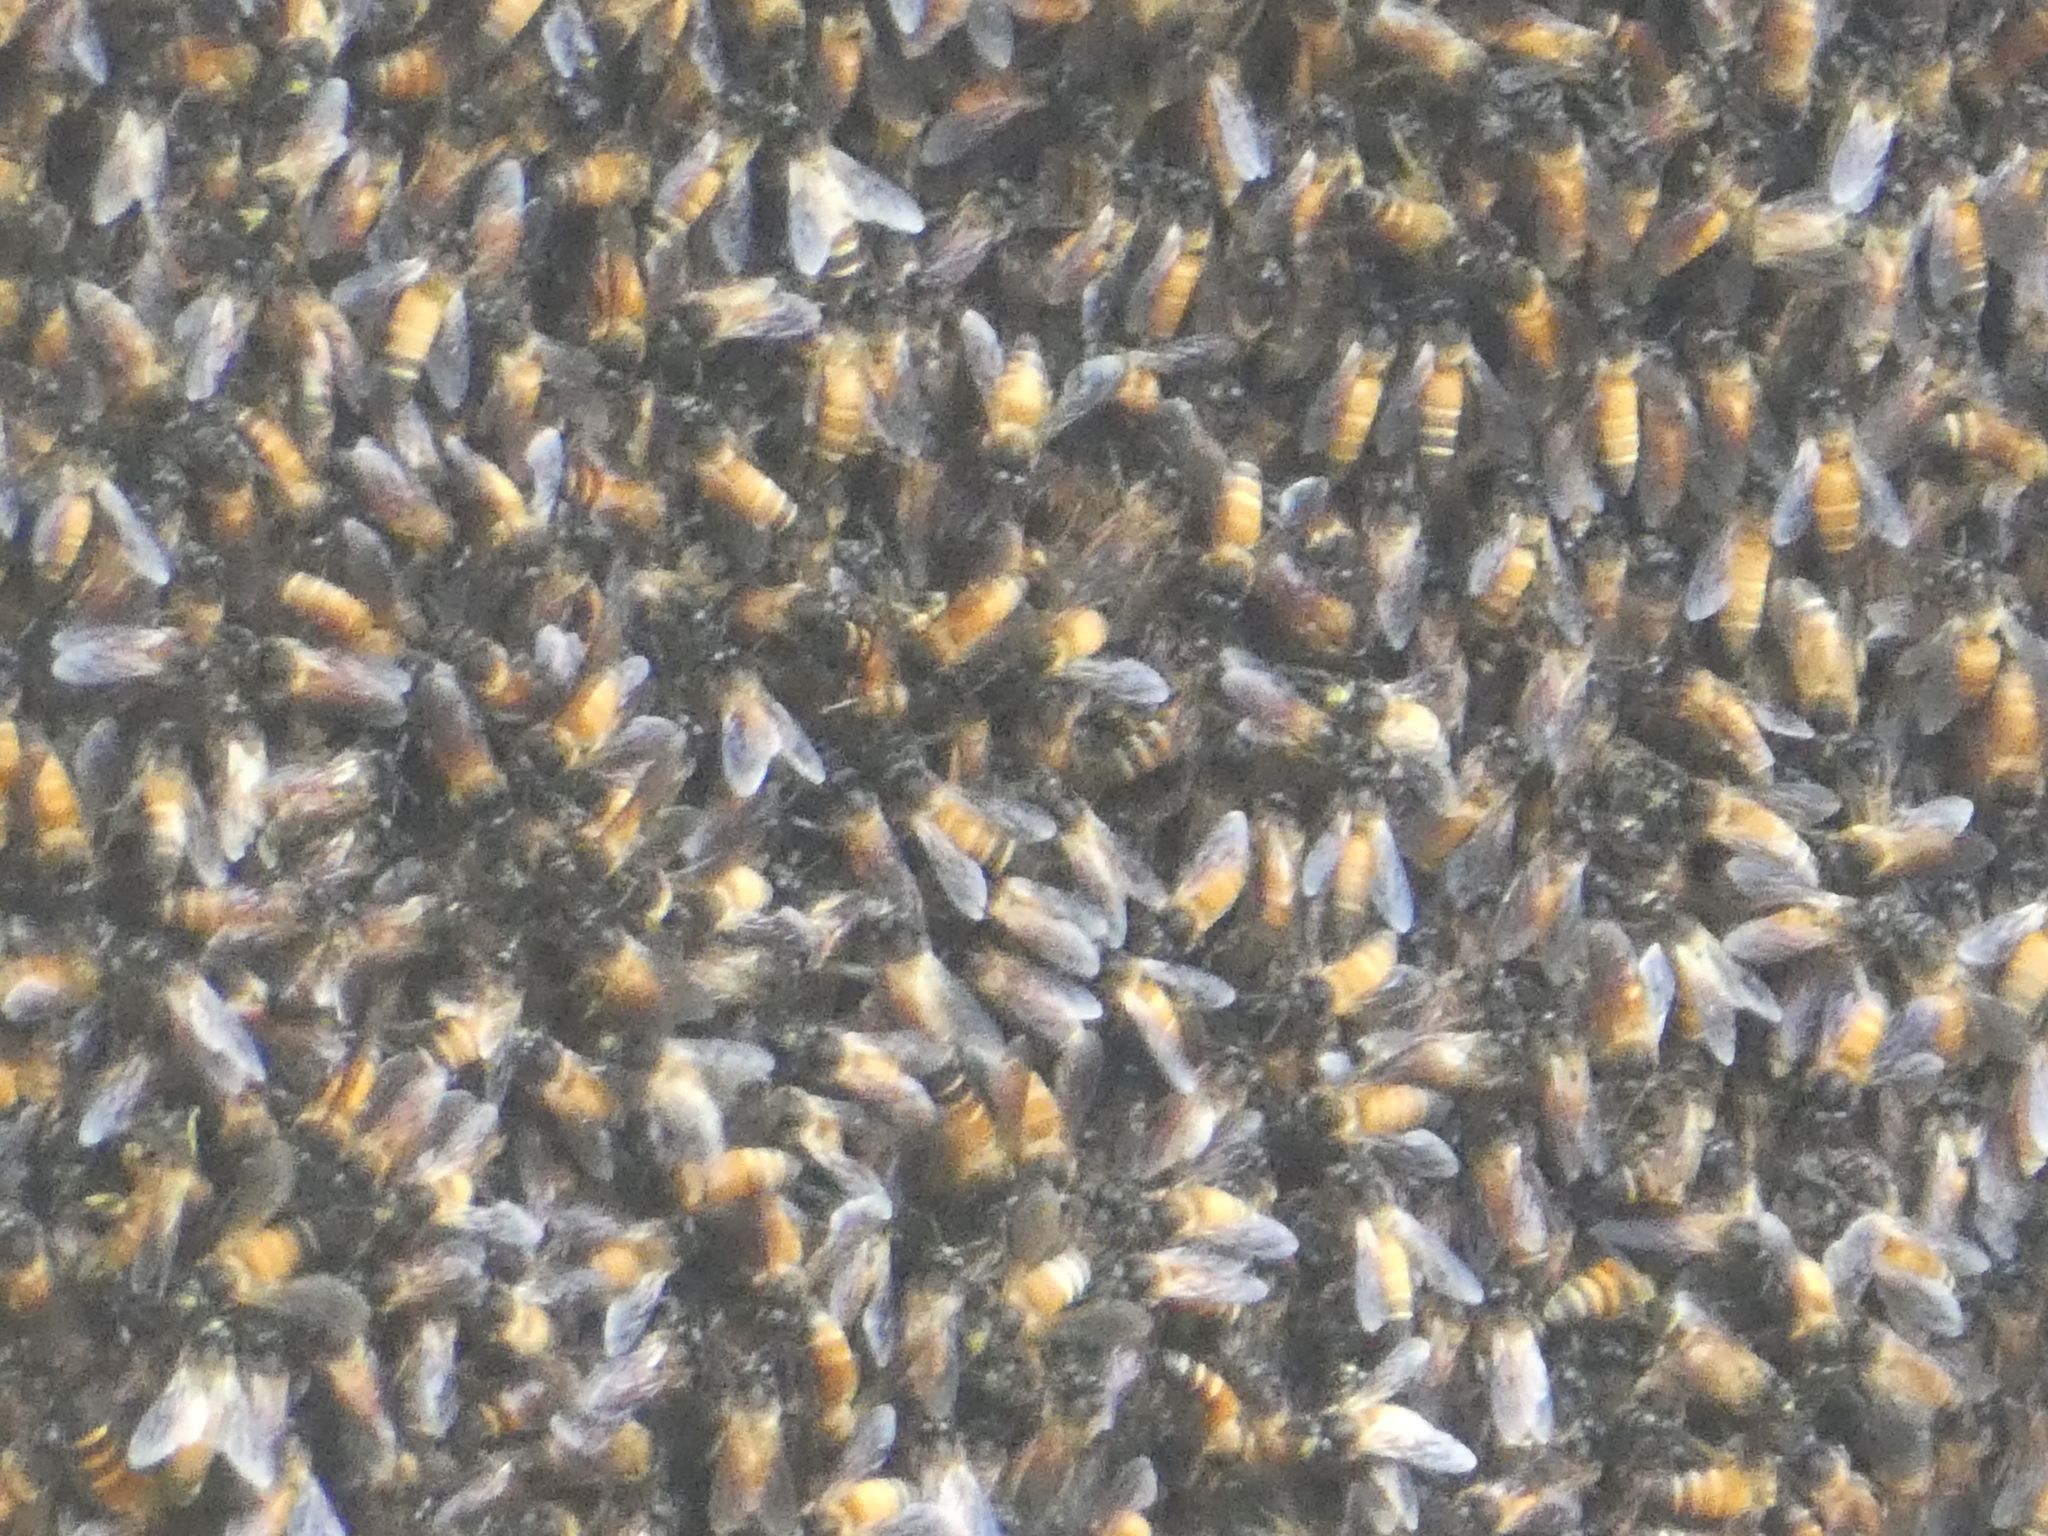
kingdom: Animalia
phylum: Arthropoda
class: Insecta
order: Hymenoptera
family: Apidae
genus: Apis
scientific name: Apis dorsata
